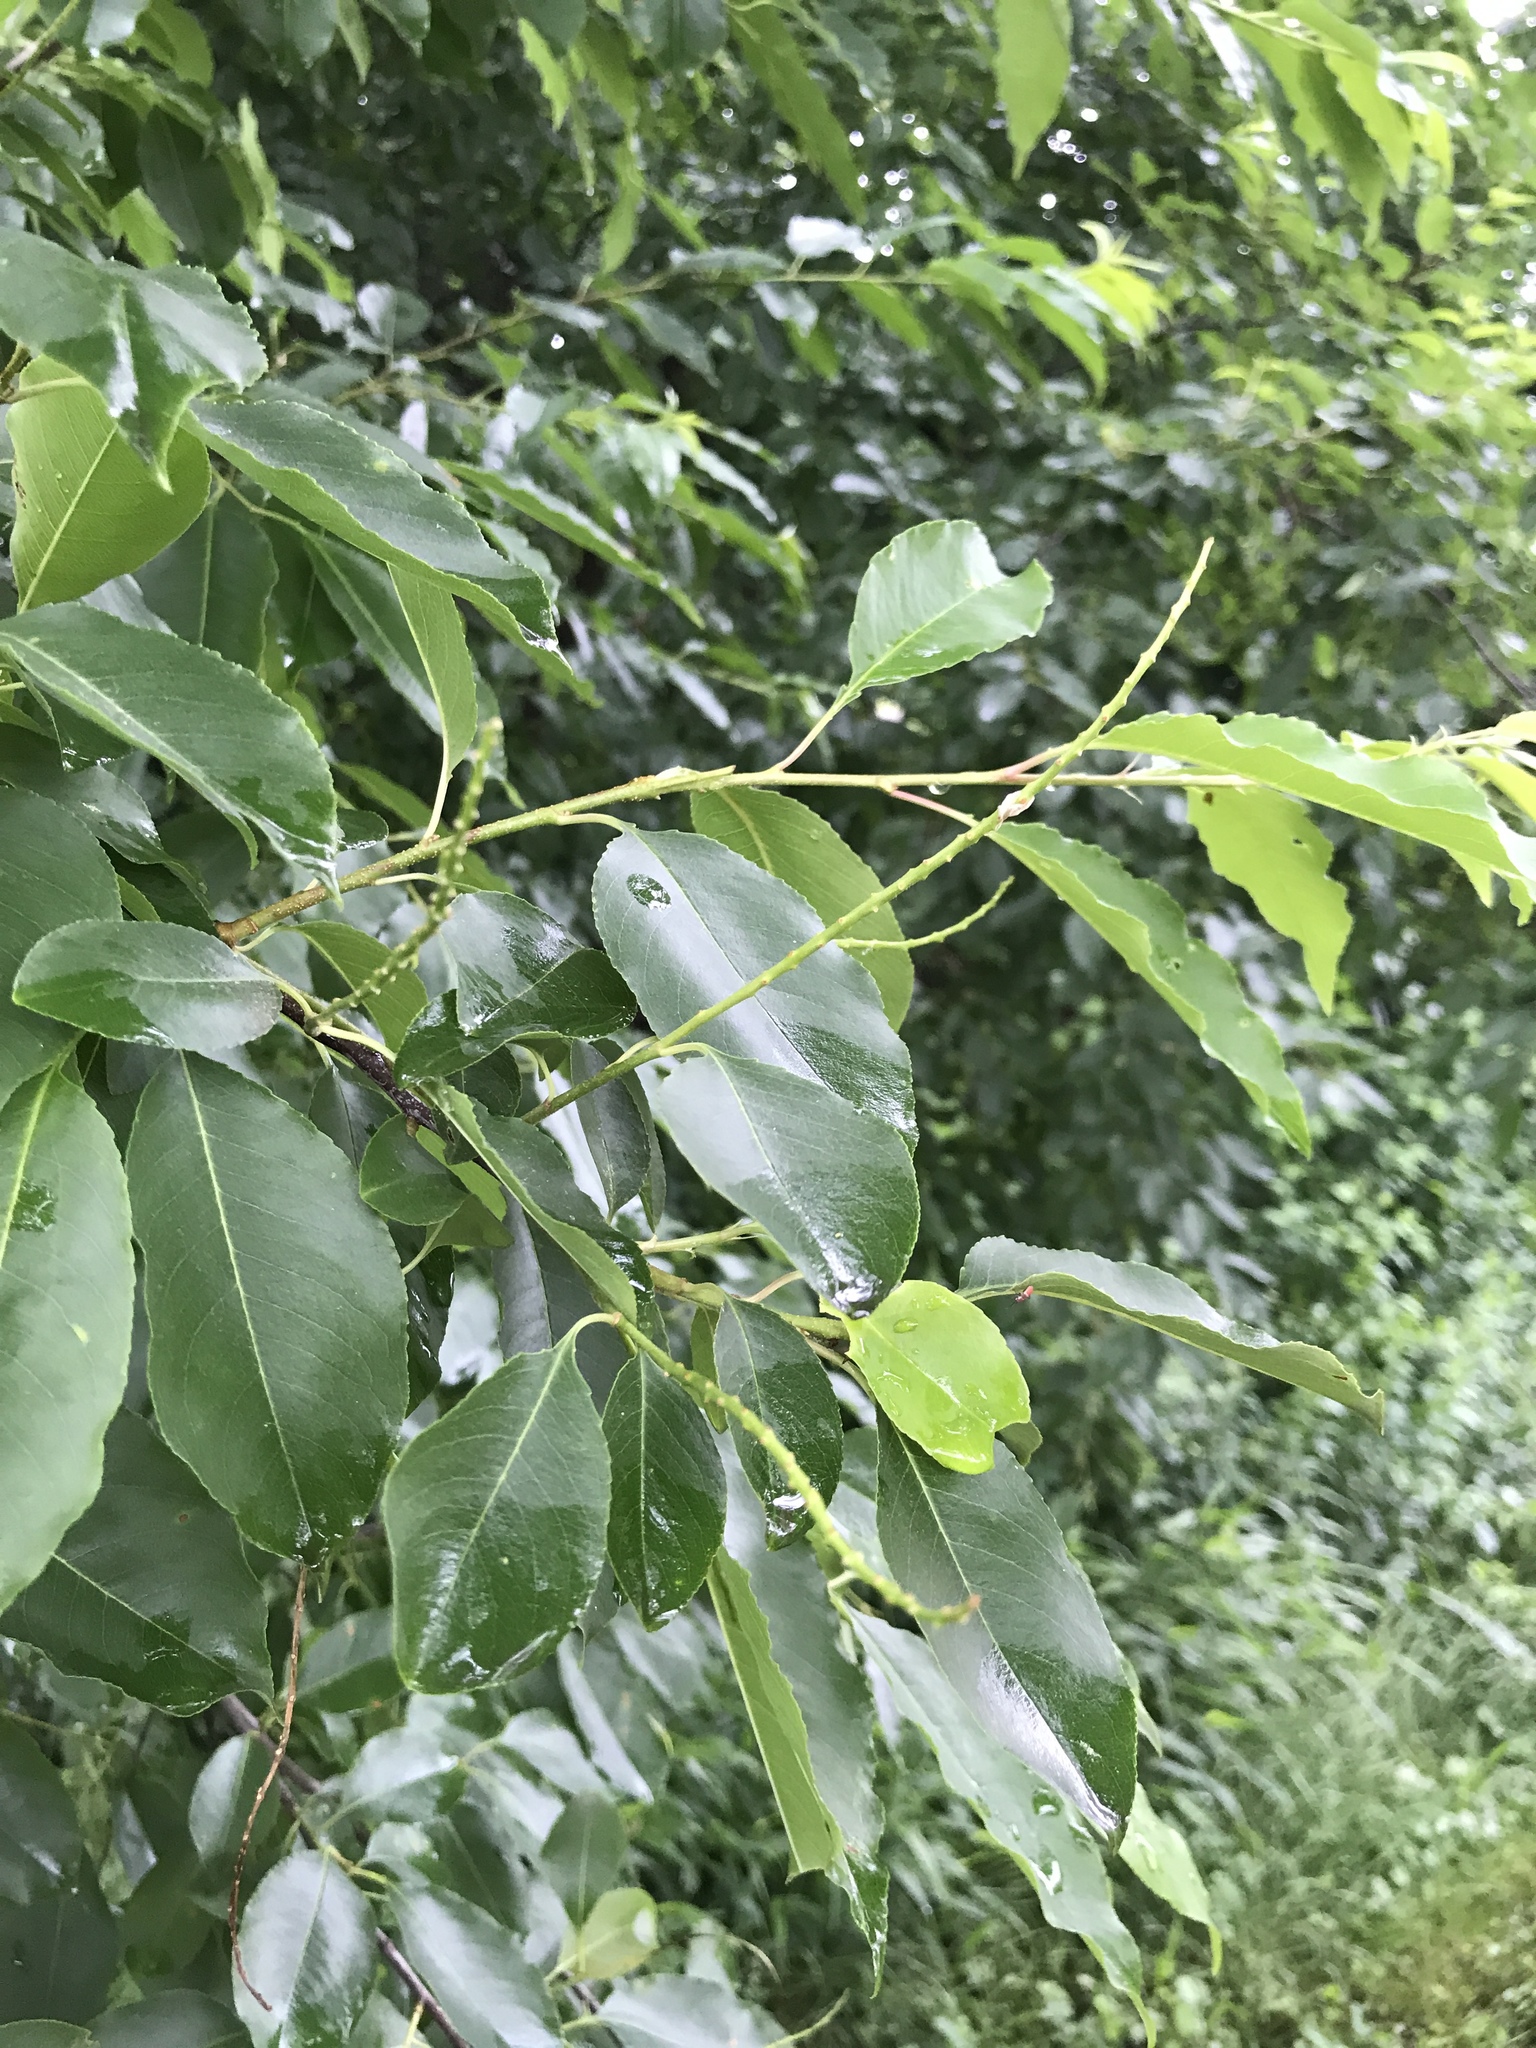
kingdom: Plantae
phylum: Tracheophyta
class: Magnoliopsida
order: Rosales
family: Rosaceae
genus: Prunus
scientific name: Prunus serotina
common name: Black cherry
